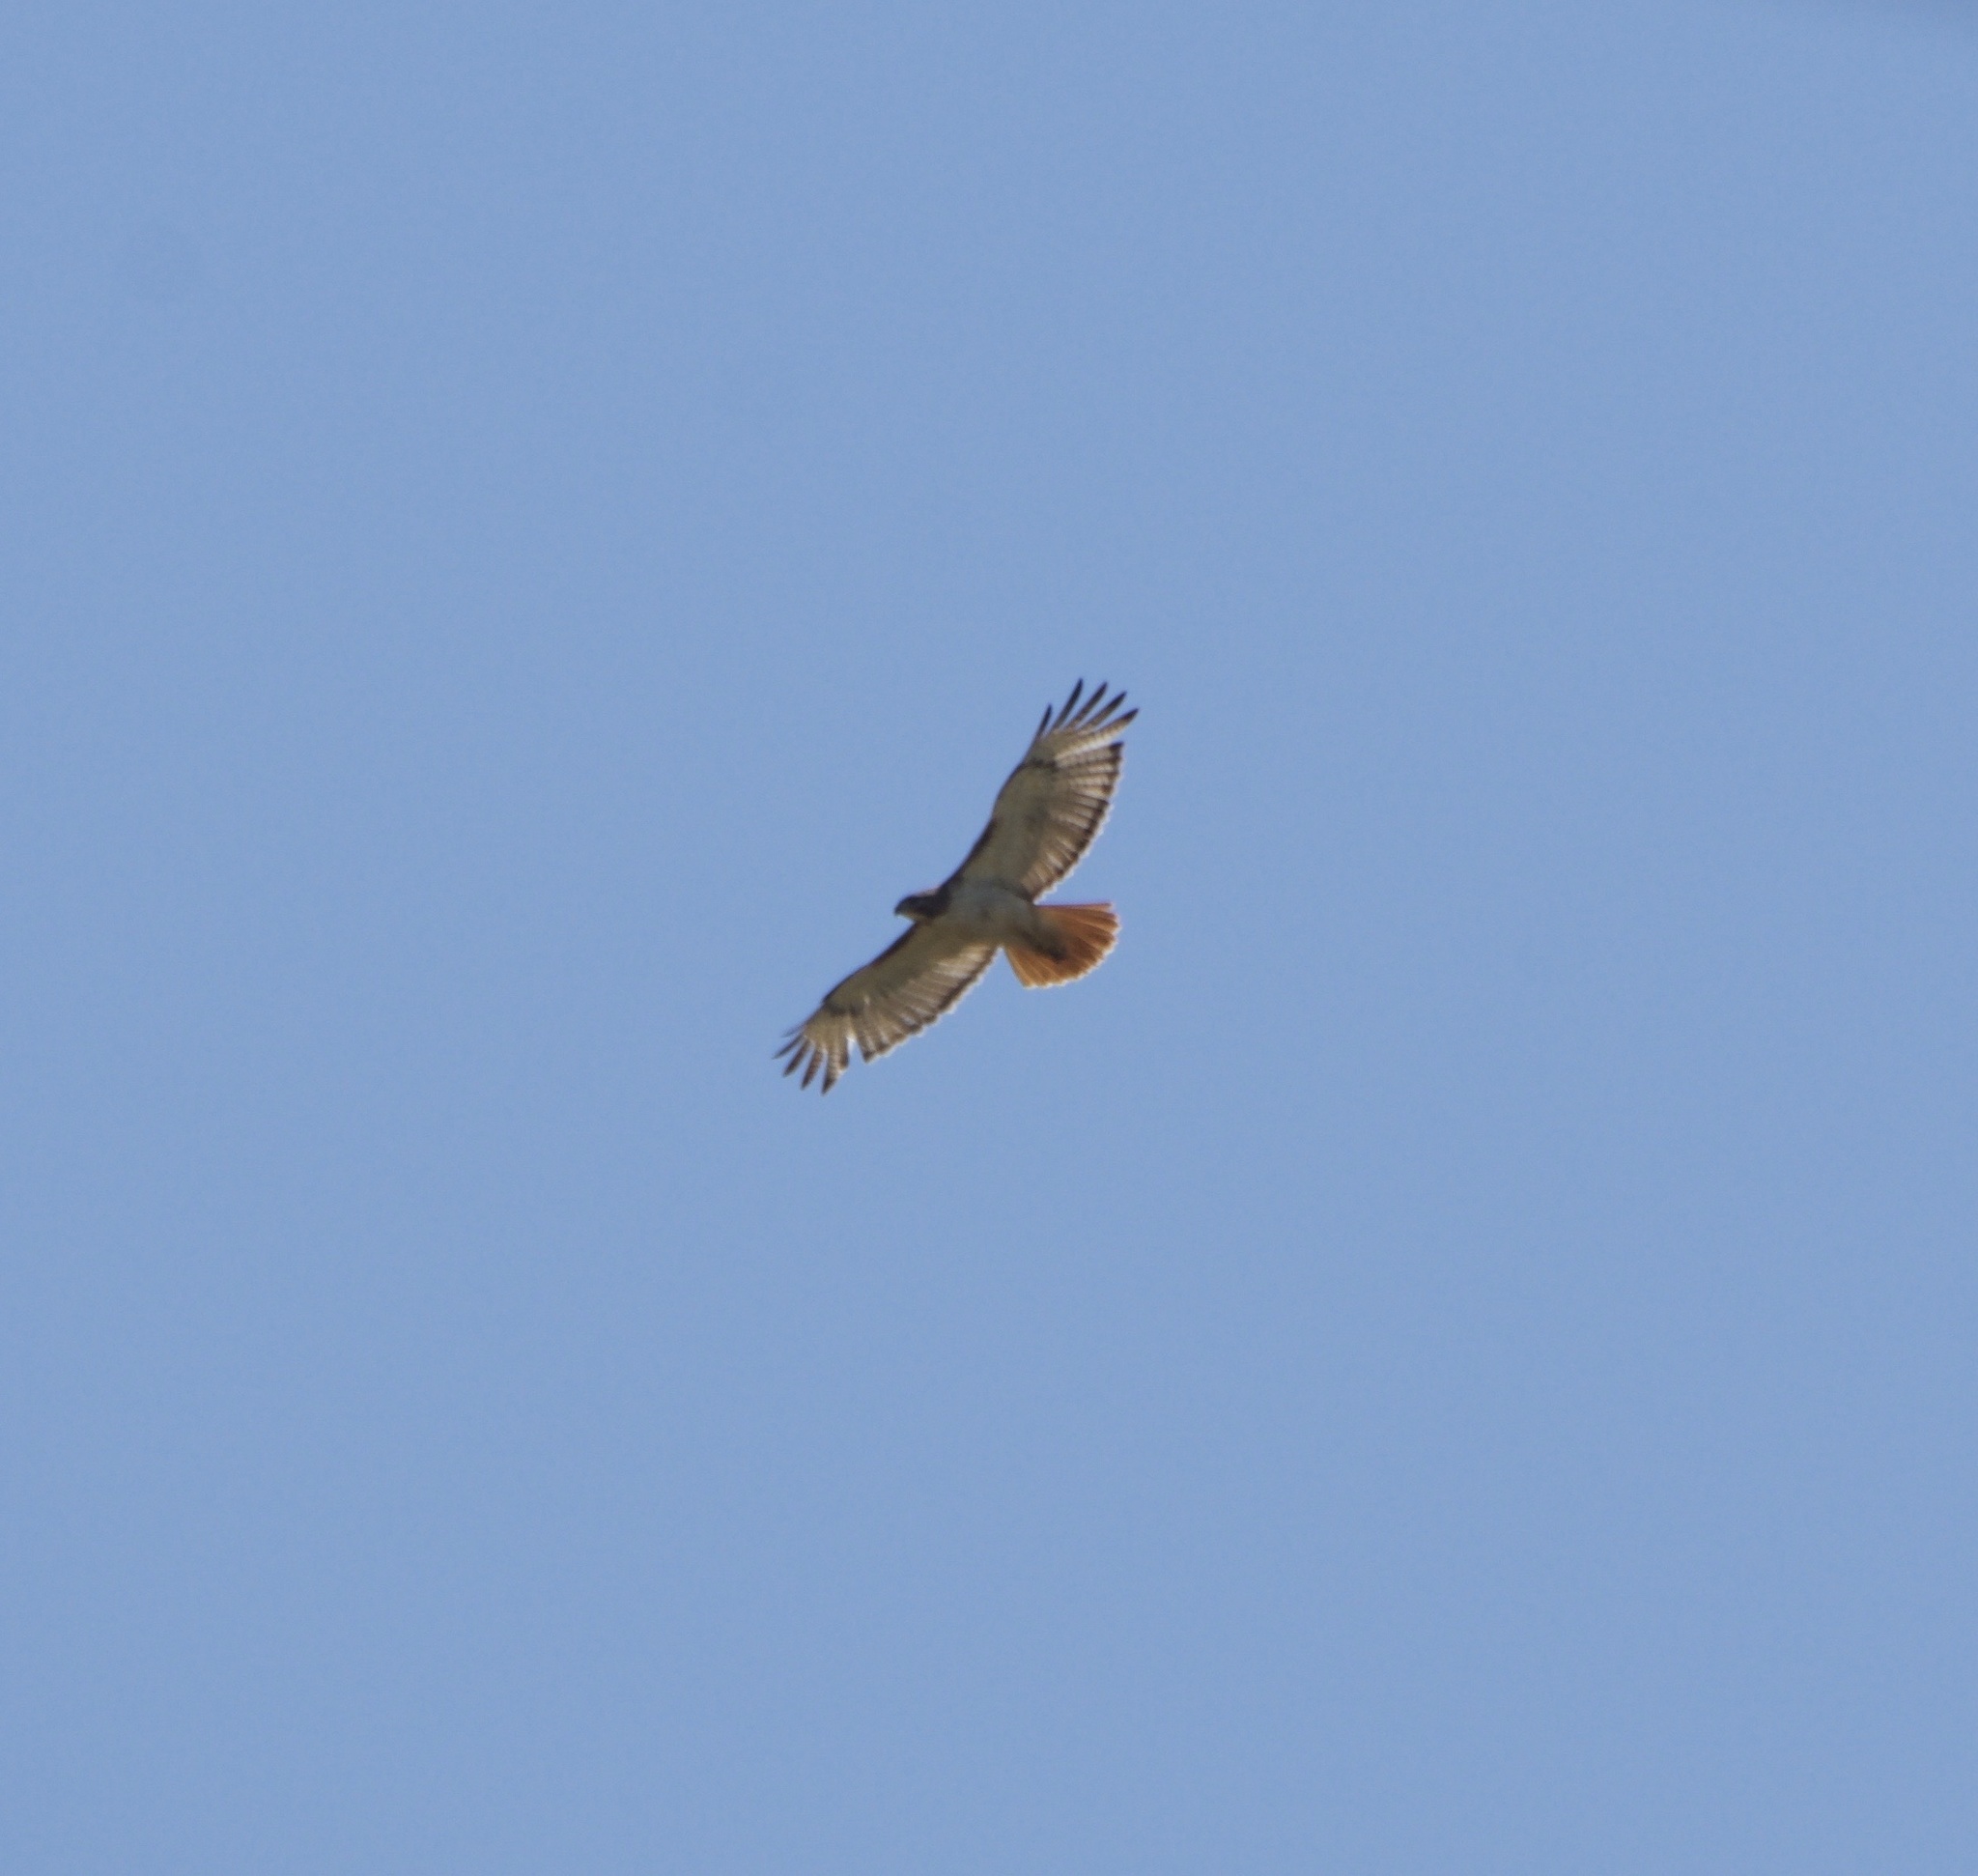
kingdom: Animalia
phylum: Chordata
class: Aves
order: Accipitriformes
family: Accipitridae
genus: Buteo
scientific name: Buteo jamaicensis
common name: Red-tailed hawk
